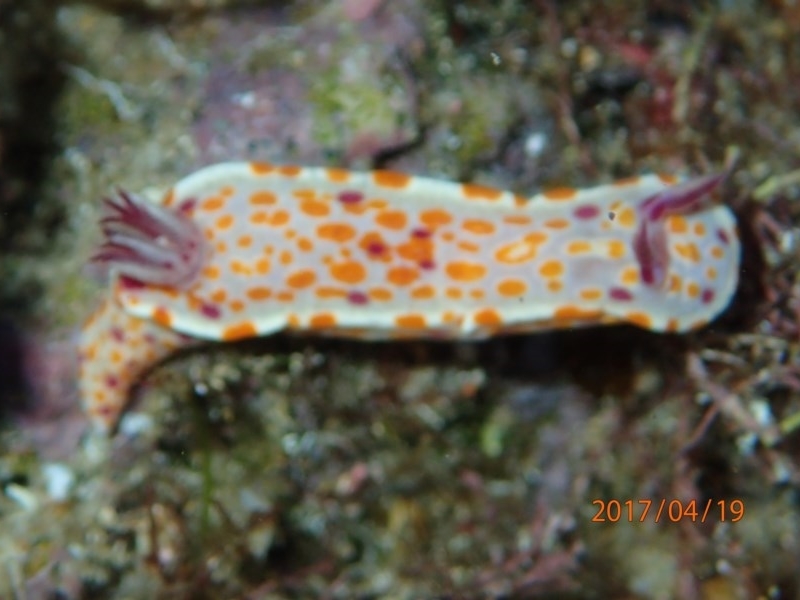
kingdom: Animalia
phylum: Mollusca
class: Gastropoda
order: Nudibranchia
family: Chromodorididae
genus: Ceratosoma
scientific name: Ceratosoma amoenum
